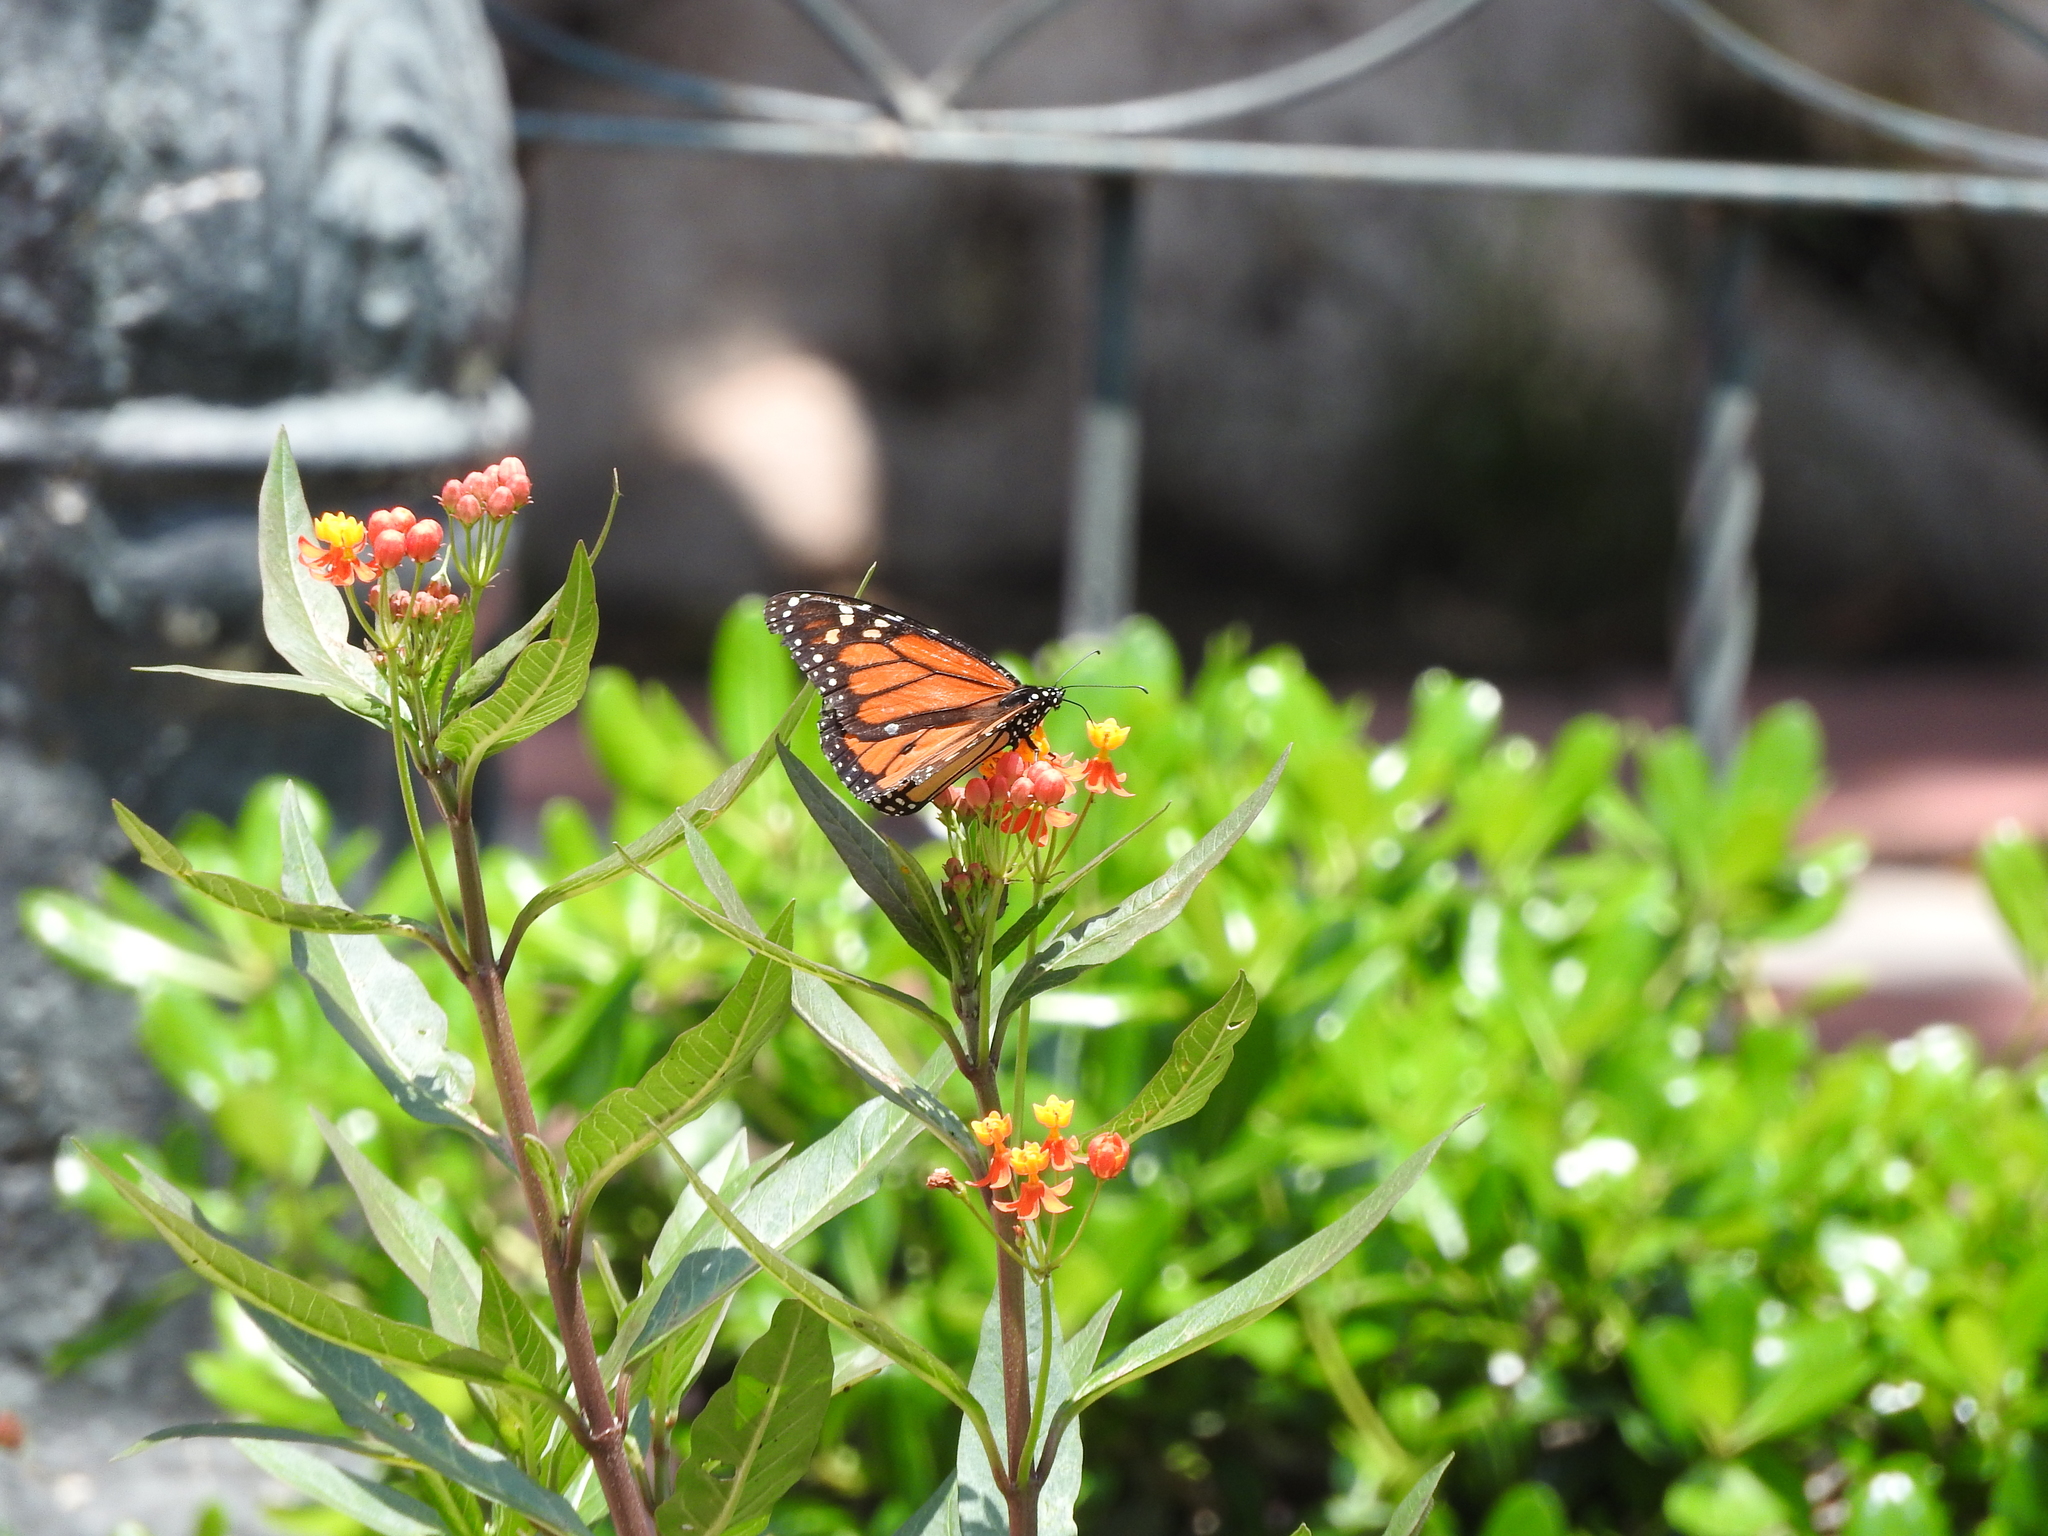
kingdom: Animalia
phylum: Arthropoda
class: Insecta
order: Lepidoptera
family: Nymphalidae
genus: Danaus
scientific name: Danaus plexippus
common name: Monarch
